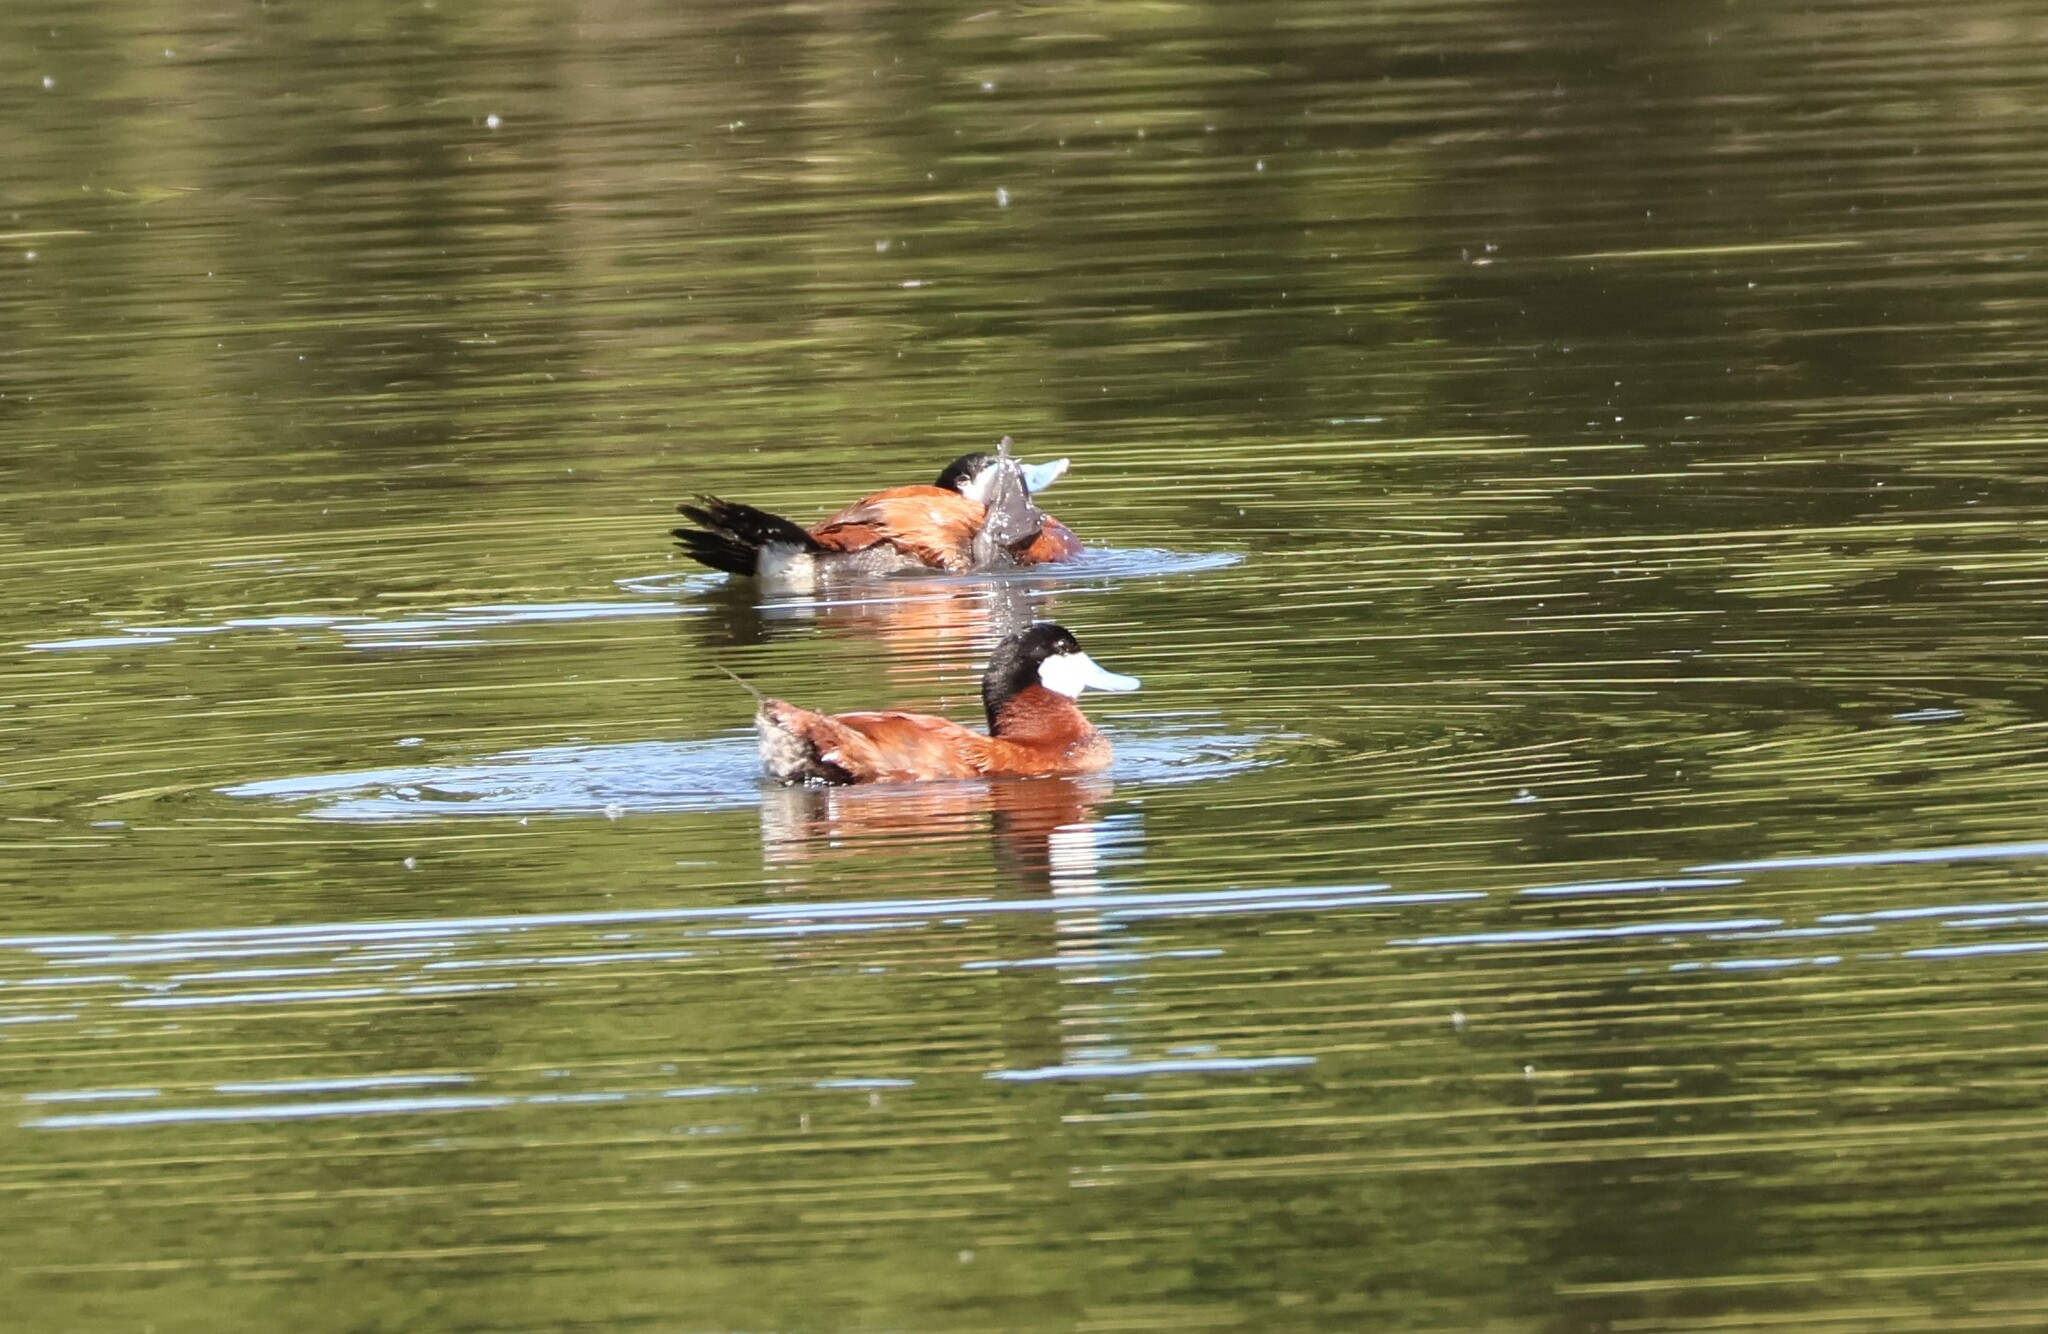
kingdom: Animalia
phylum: Chordata
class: Aves
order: Anseriformes
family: Anatidae
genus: Oxyura
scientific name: Oxyura jamaicensis
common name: Ruddy duck
